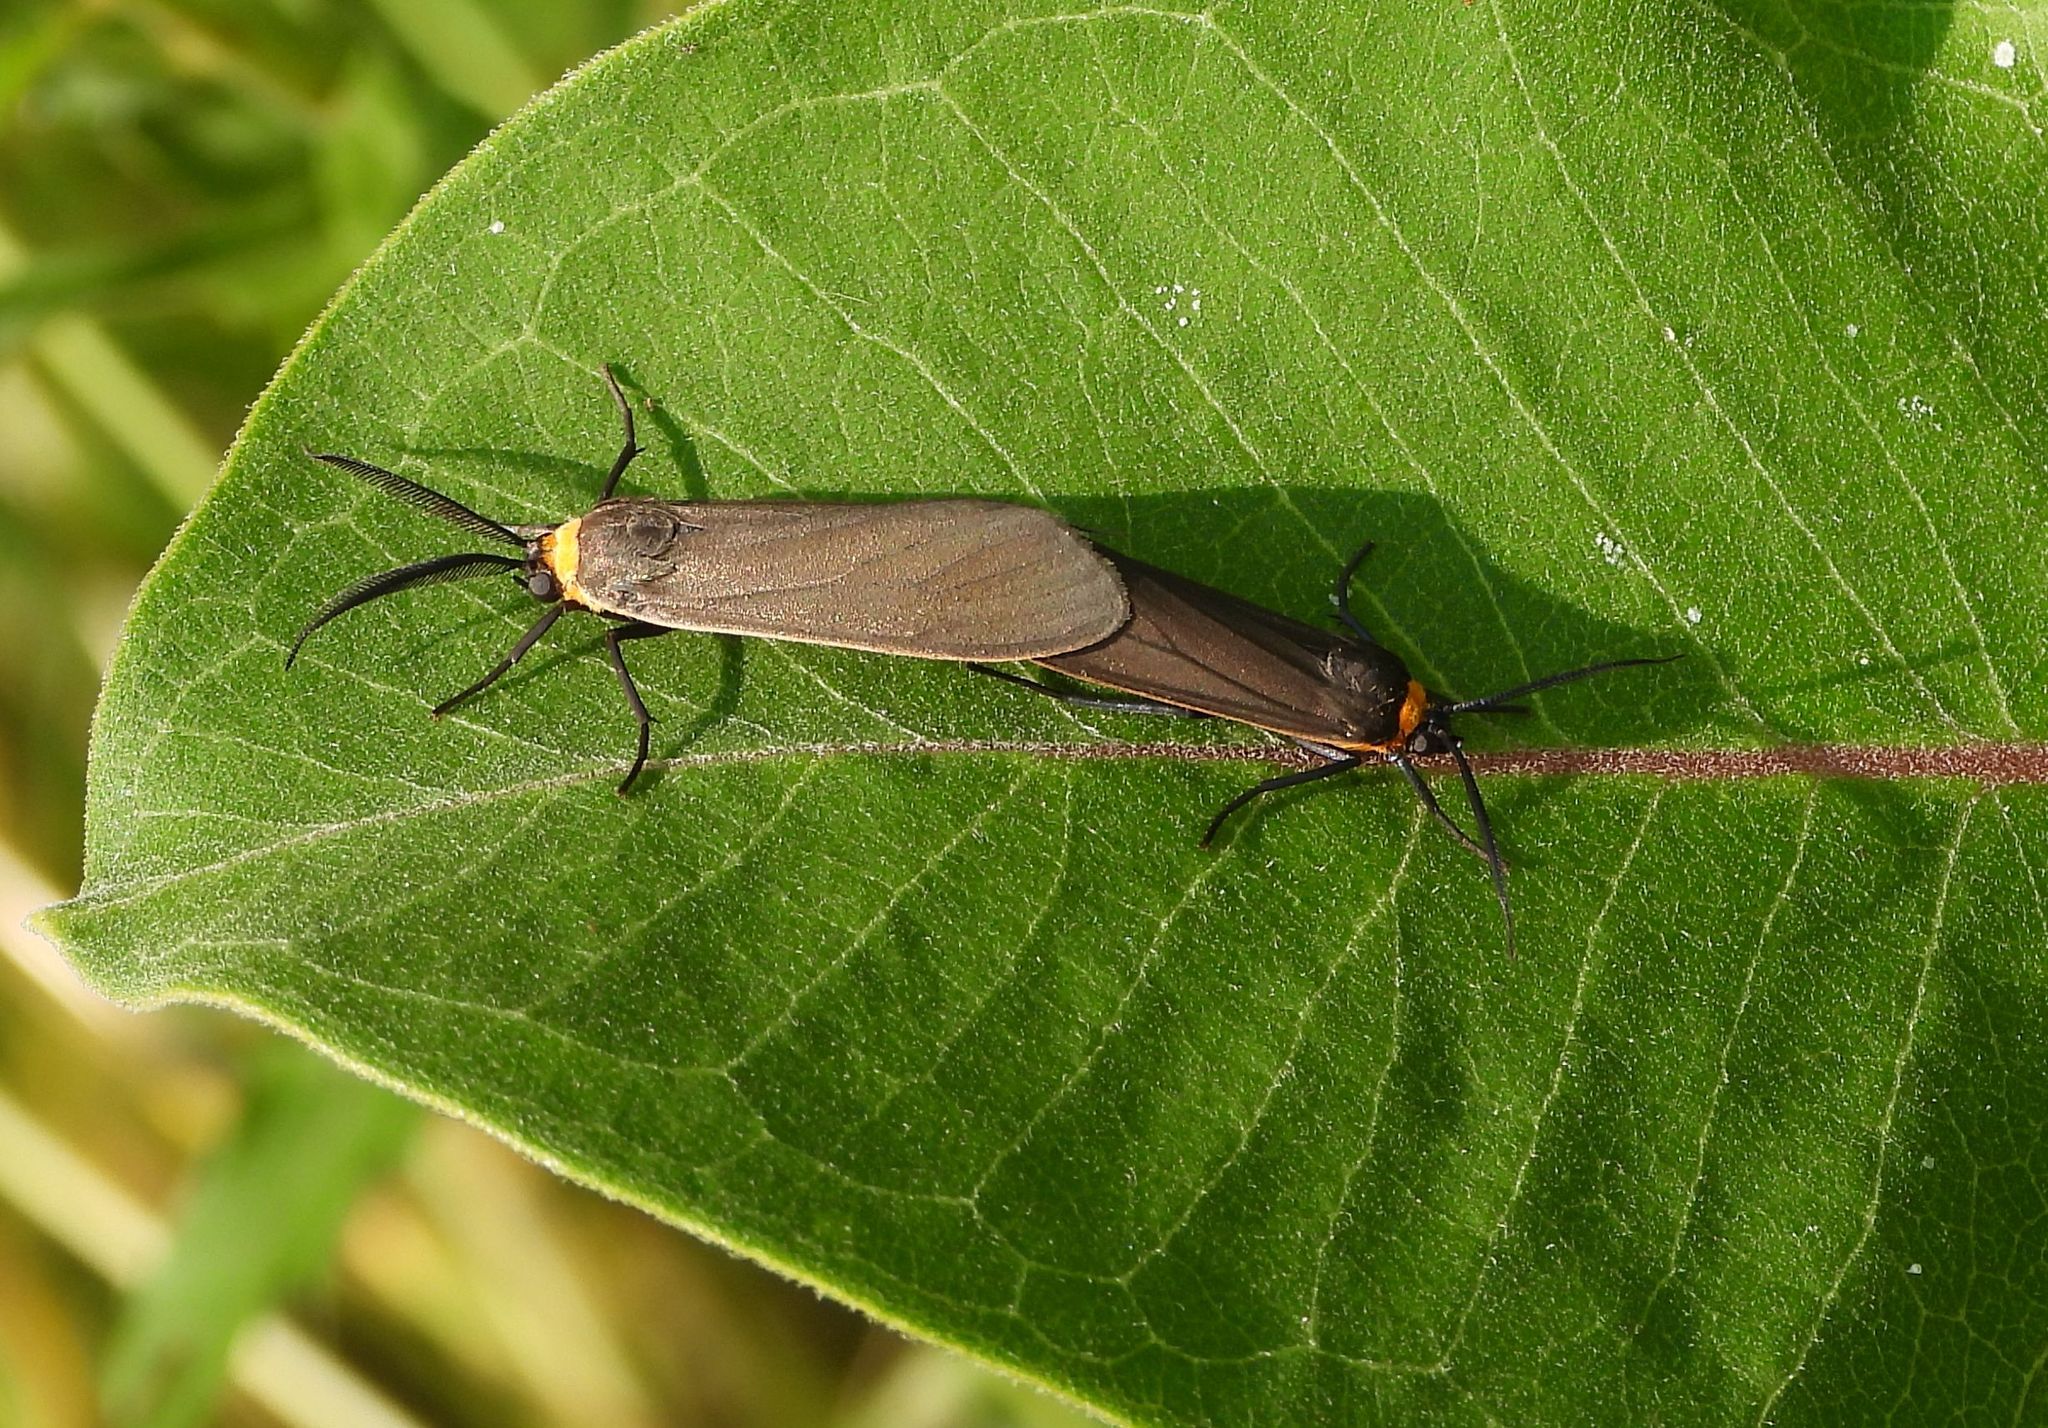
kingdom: Animalia
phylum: Arthropoda
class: Insecta
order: Lepidoptera
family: Erebidae
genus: Cisseps
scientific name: Cisseps fulvicollis
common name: Yellow-collared scape moth
